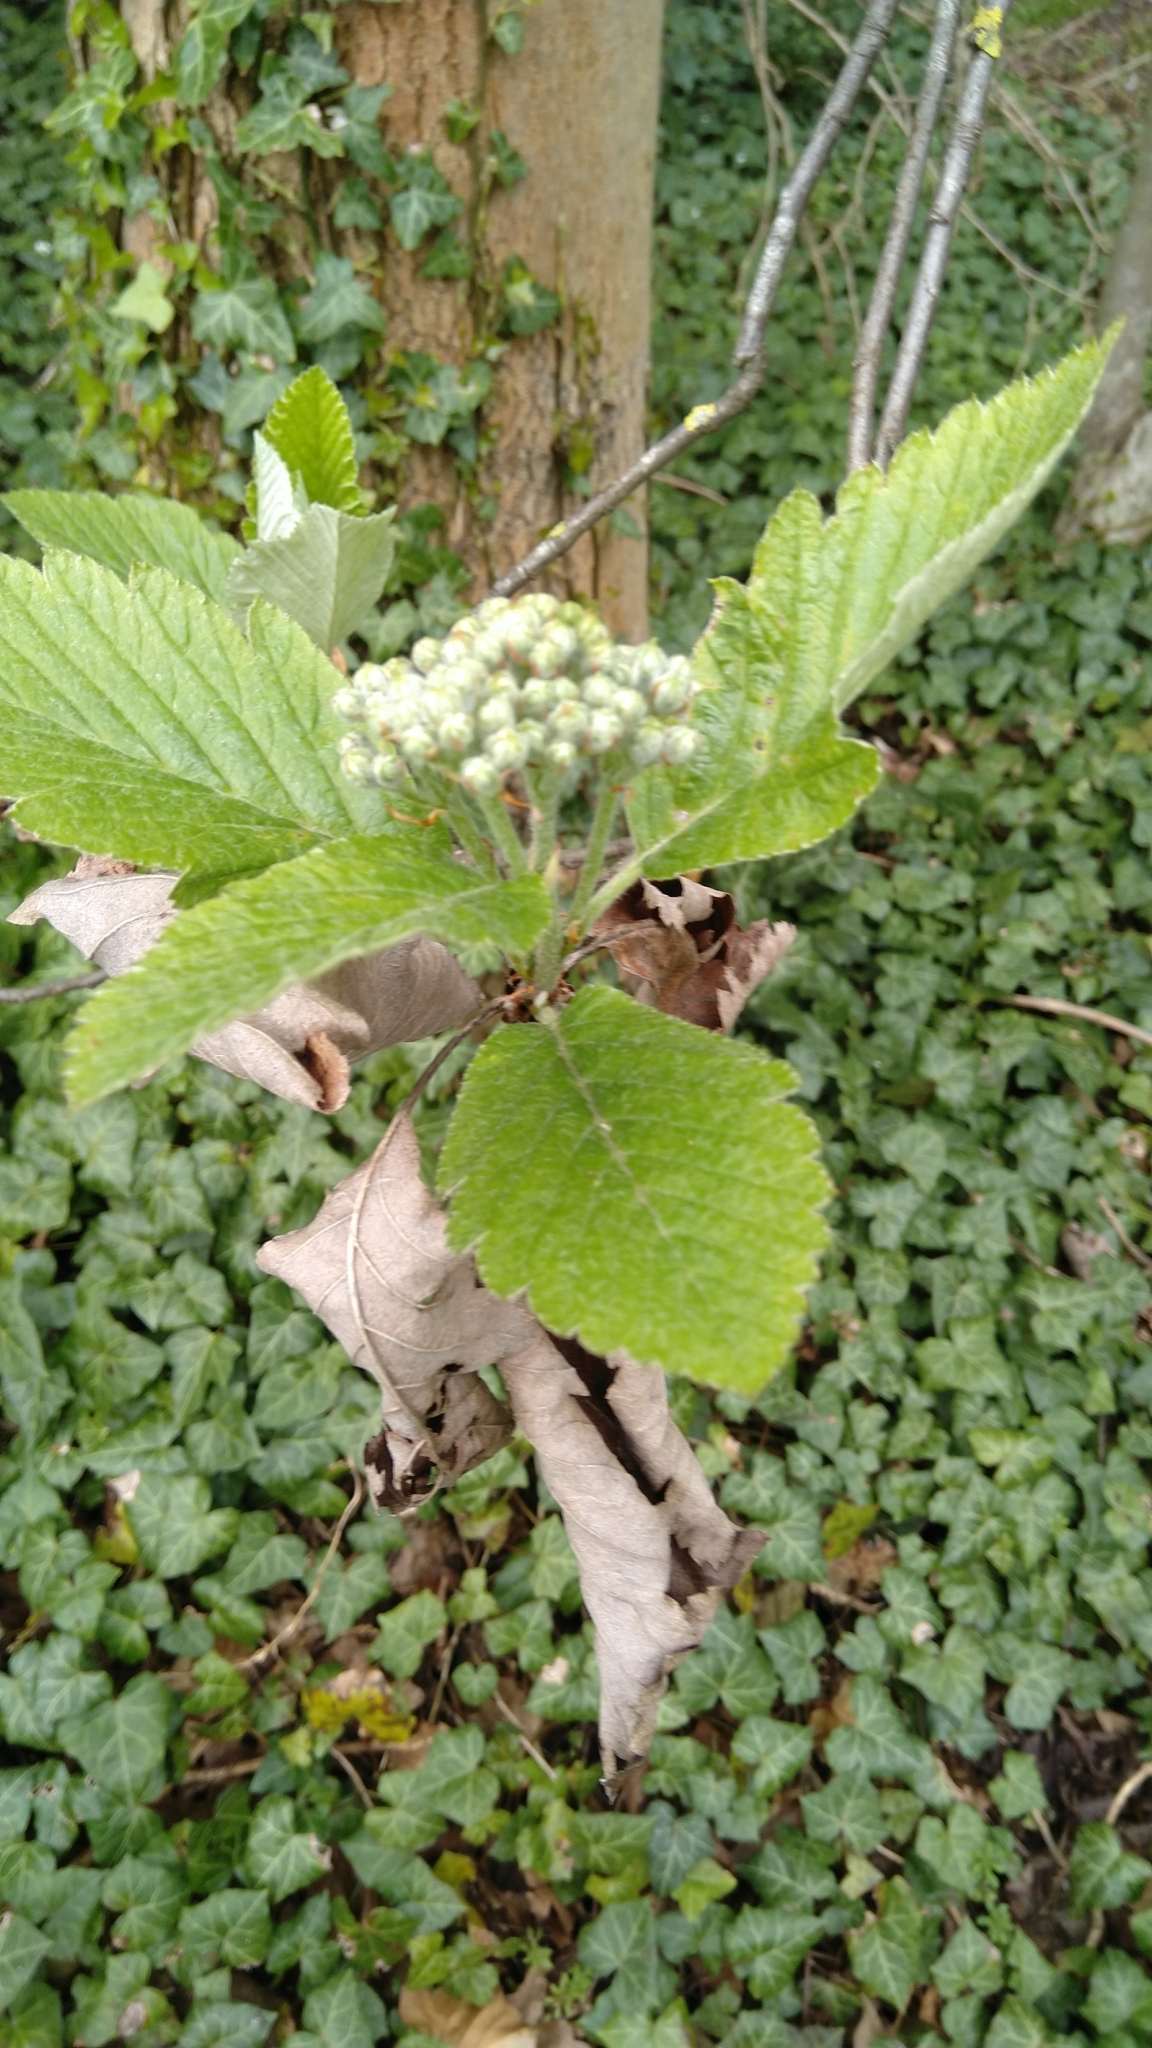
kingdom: Plantae
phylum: Tracheophyta
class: Magnoliopsida
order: Rosales
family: Rosaceae
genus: Aria
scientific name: Aria edulis
